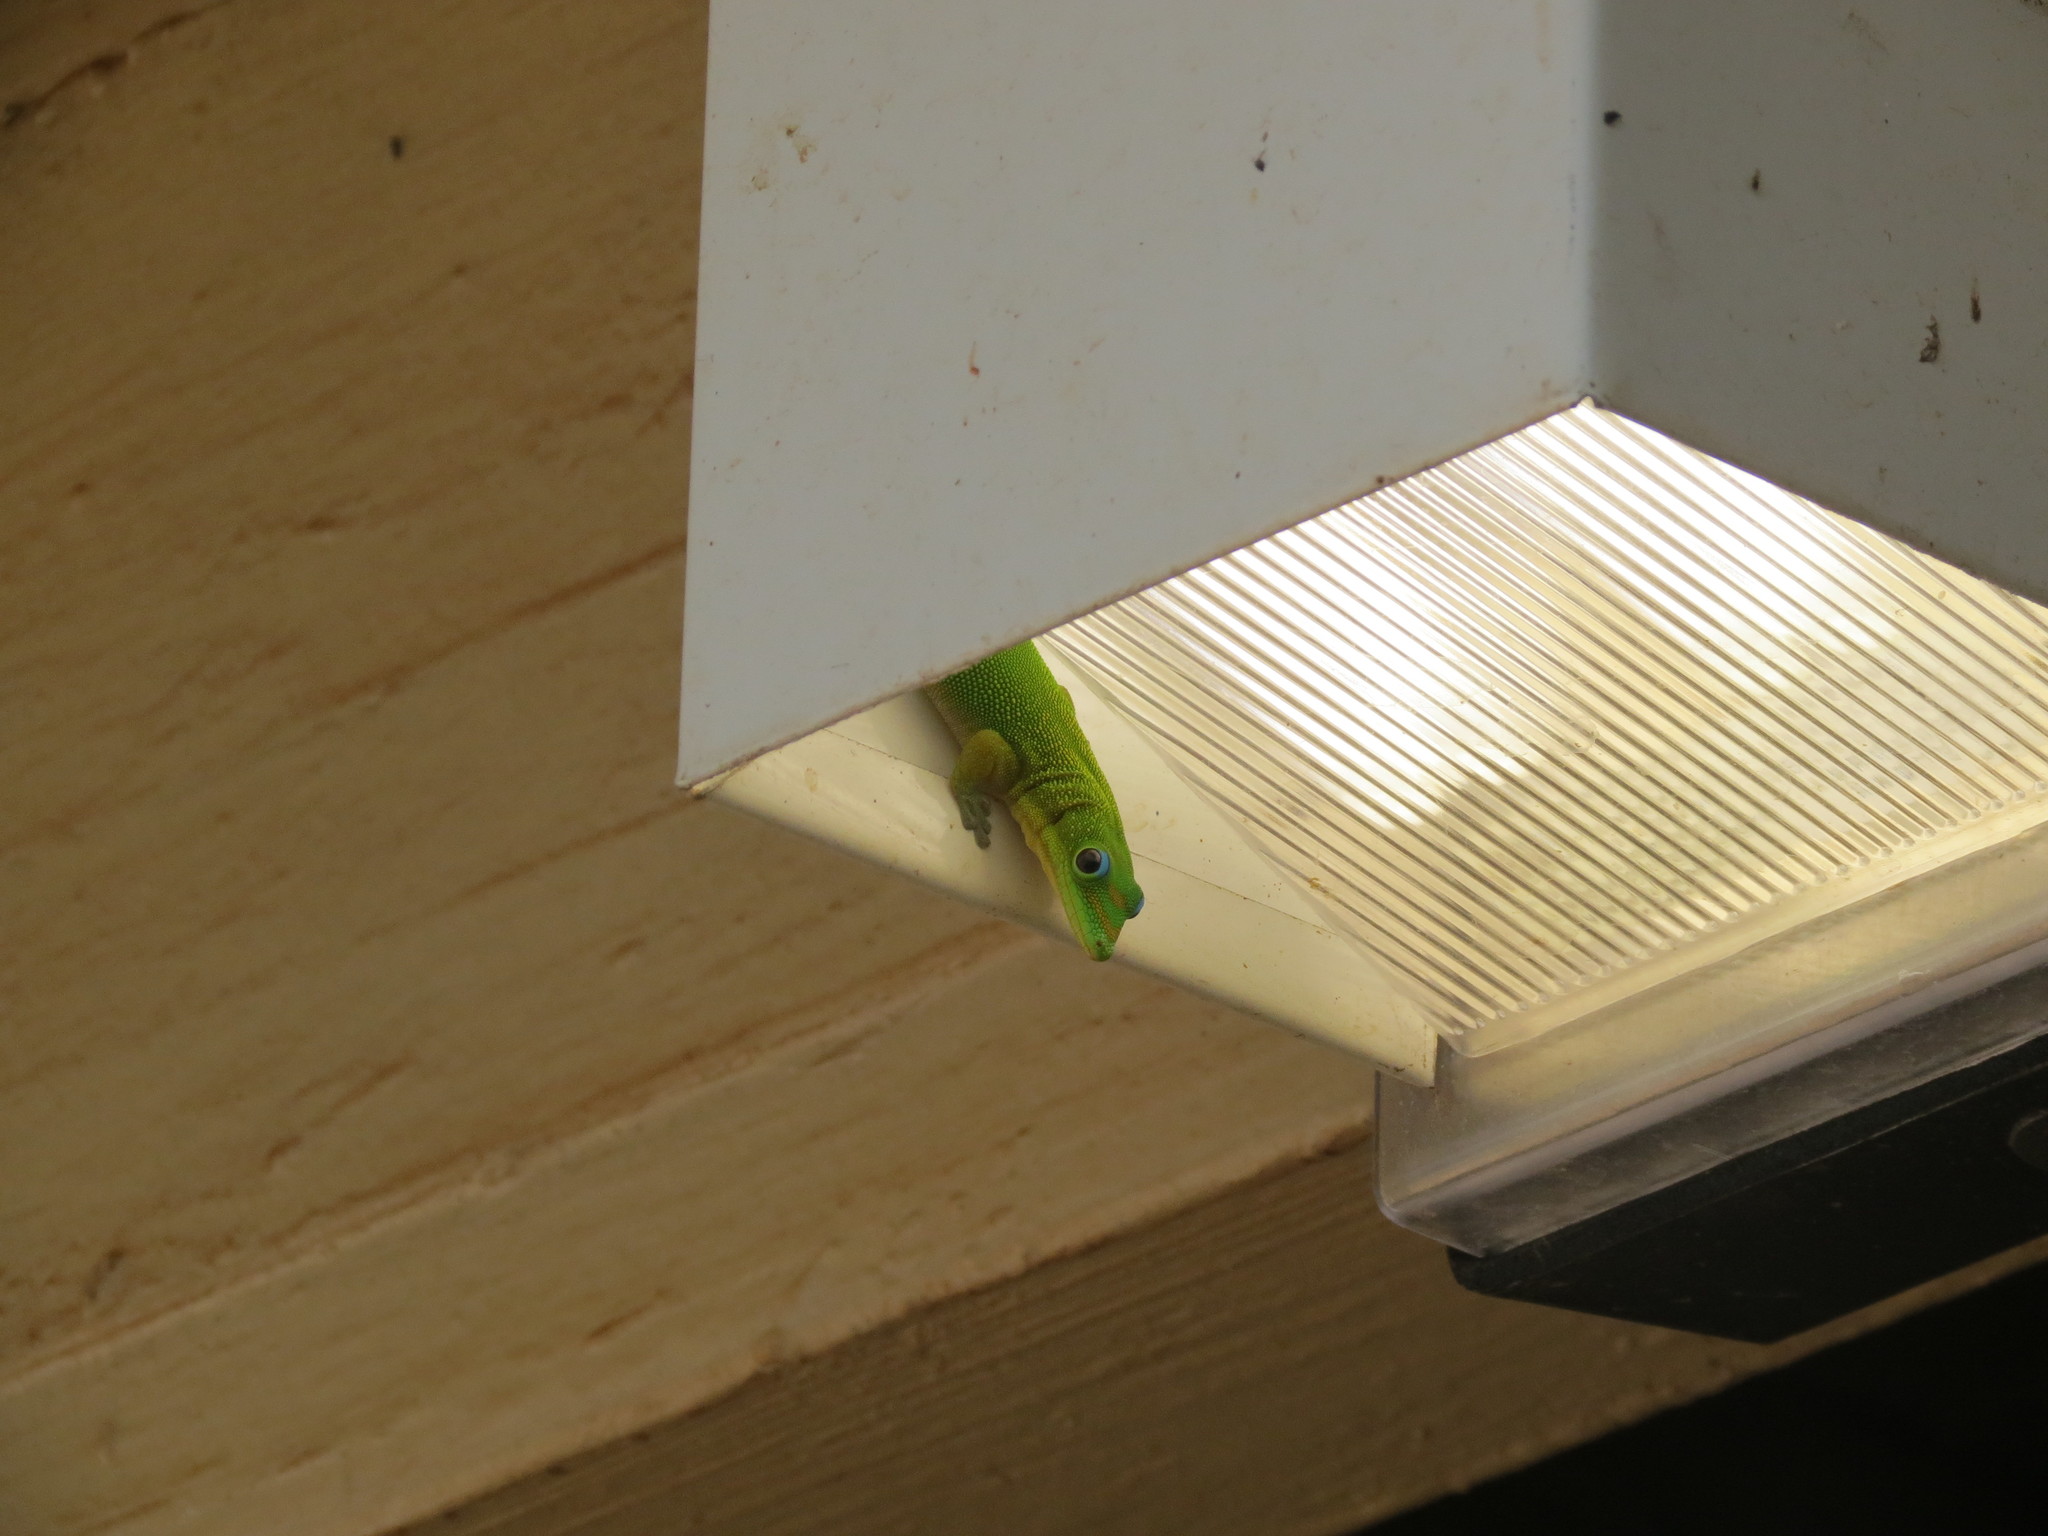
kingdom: Animalia
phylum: Chordata
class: Squamata
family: Gekkonidae
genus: Phelsuma
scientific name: Phelsuma laticauda
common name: Gold dust day gecko
